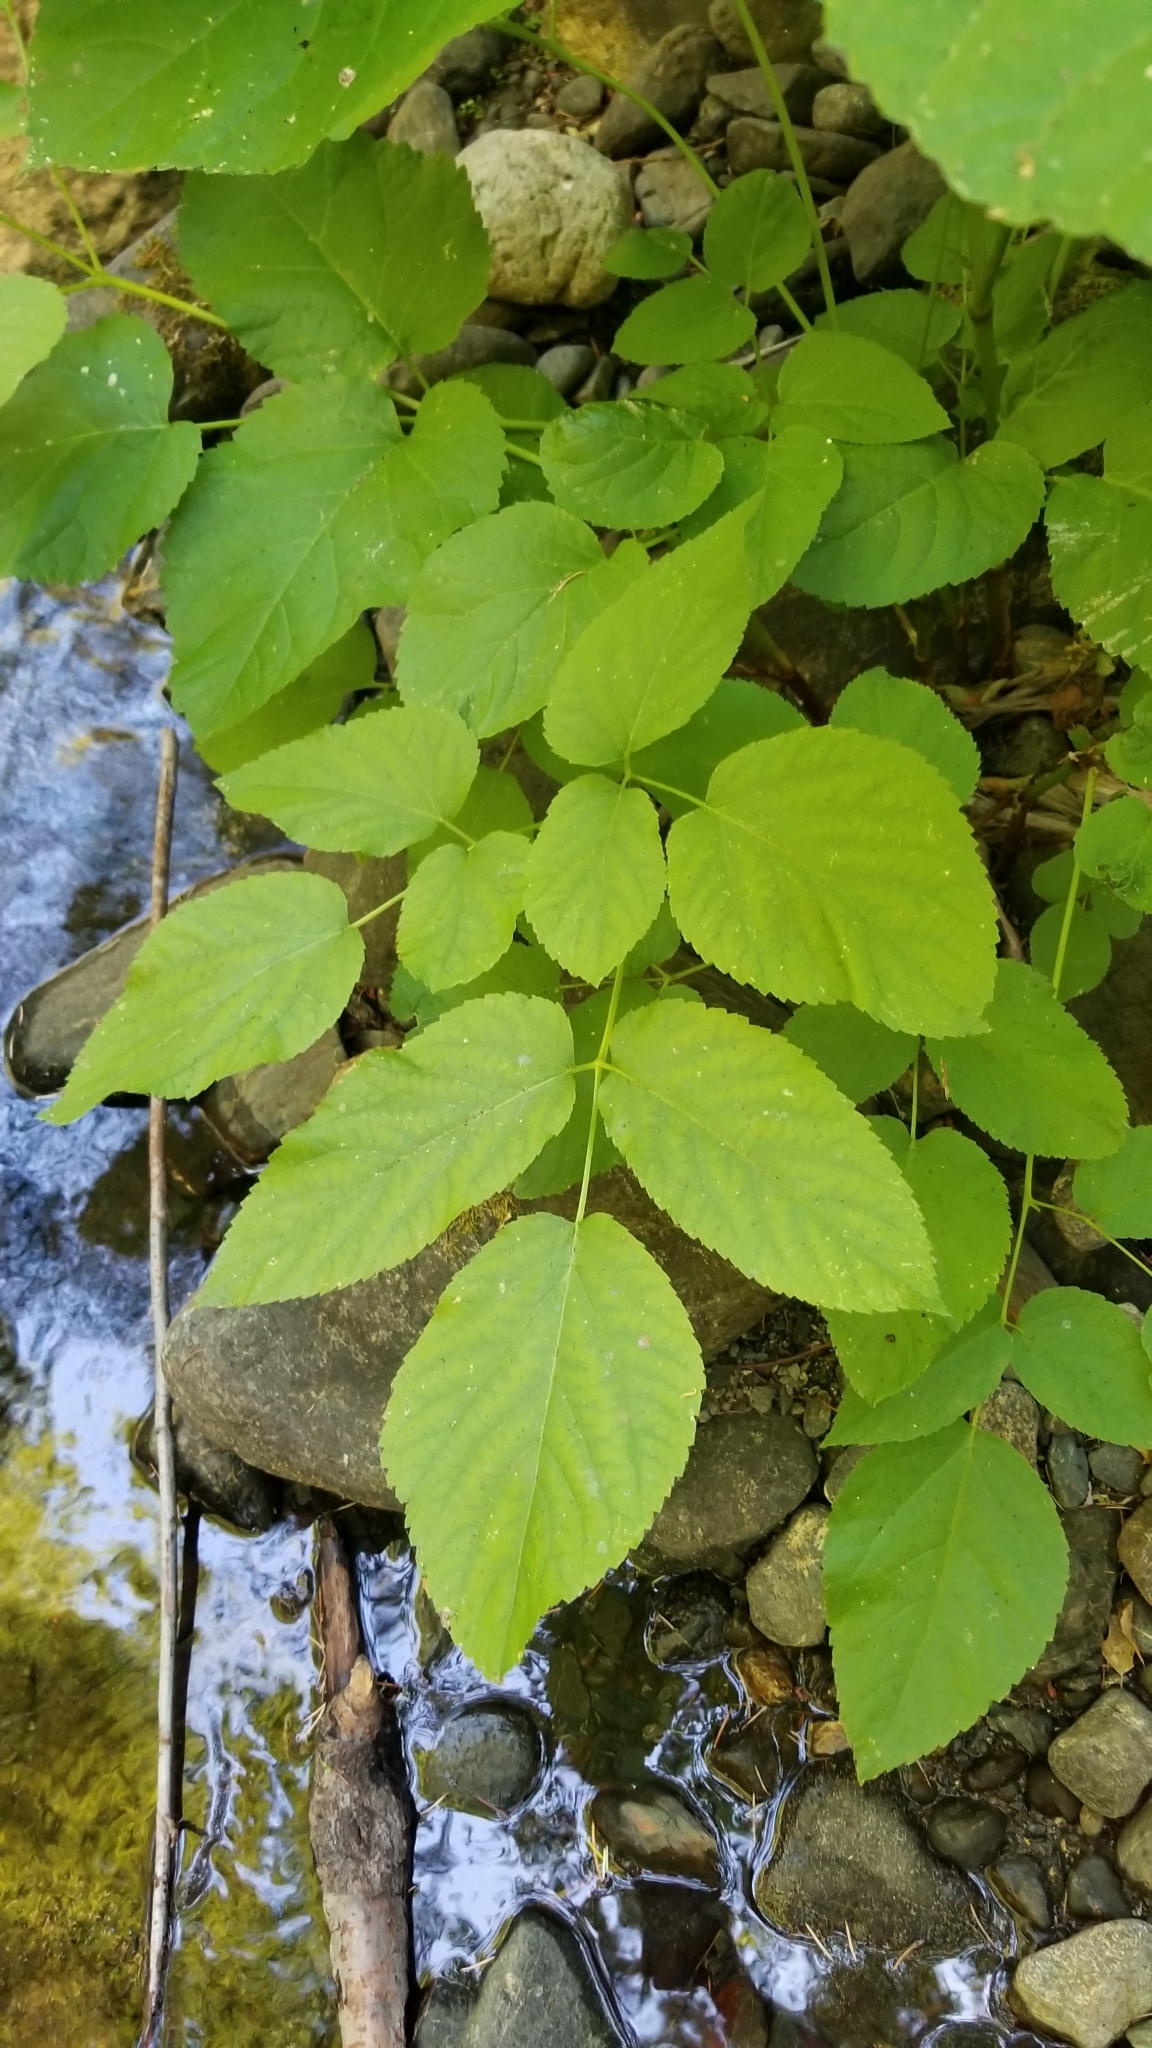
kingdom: Plantae
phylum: Tracheophyta
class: Magnoliopsida
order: Apiales
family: Araliaceae
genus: Aralia
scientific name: Aralia californica
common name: California-ginseng
